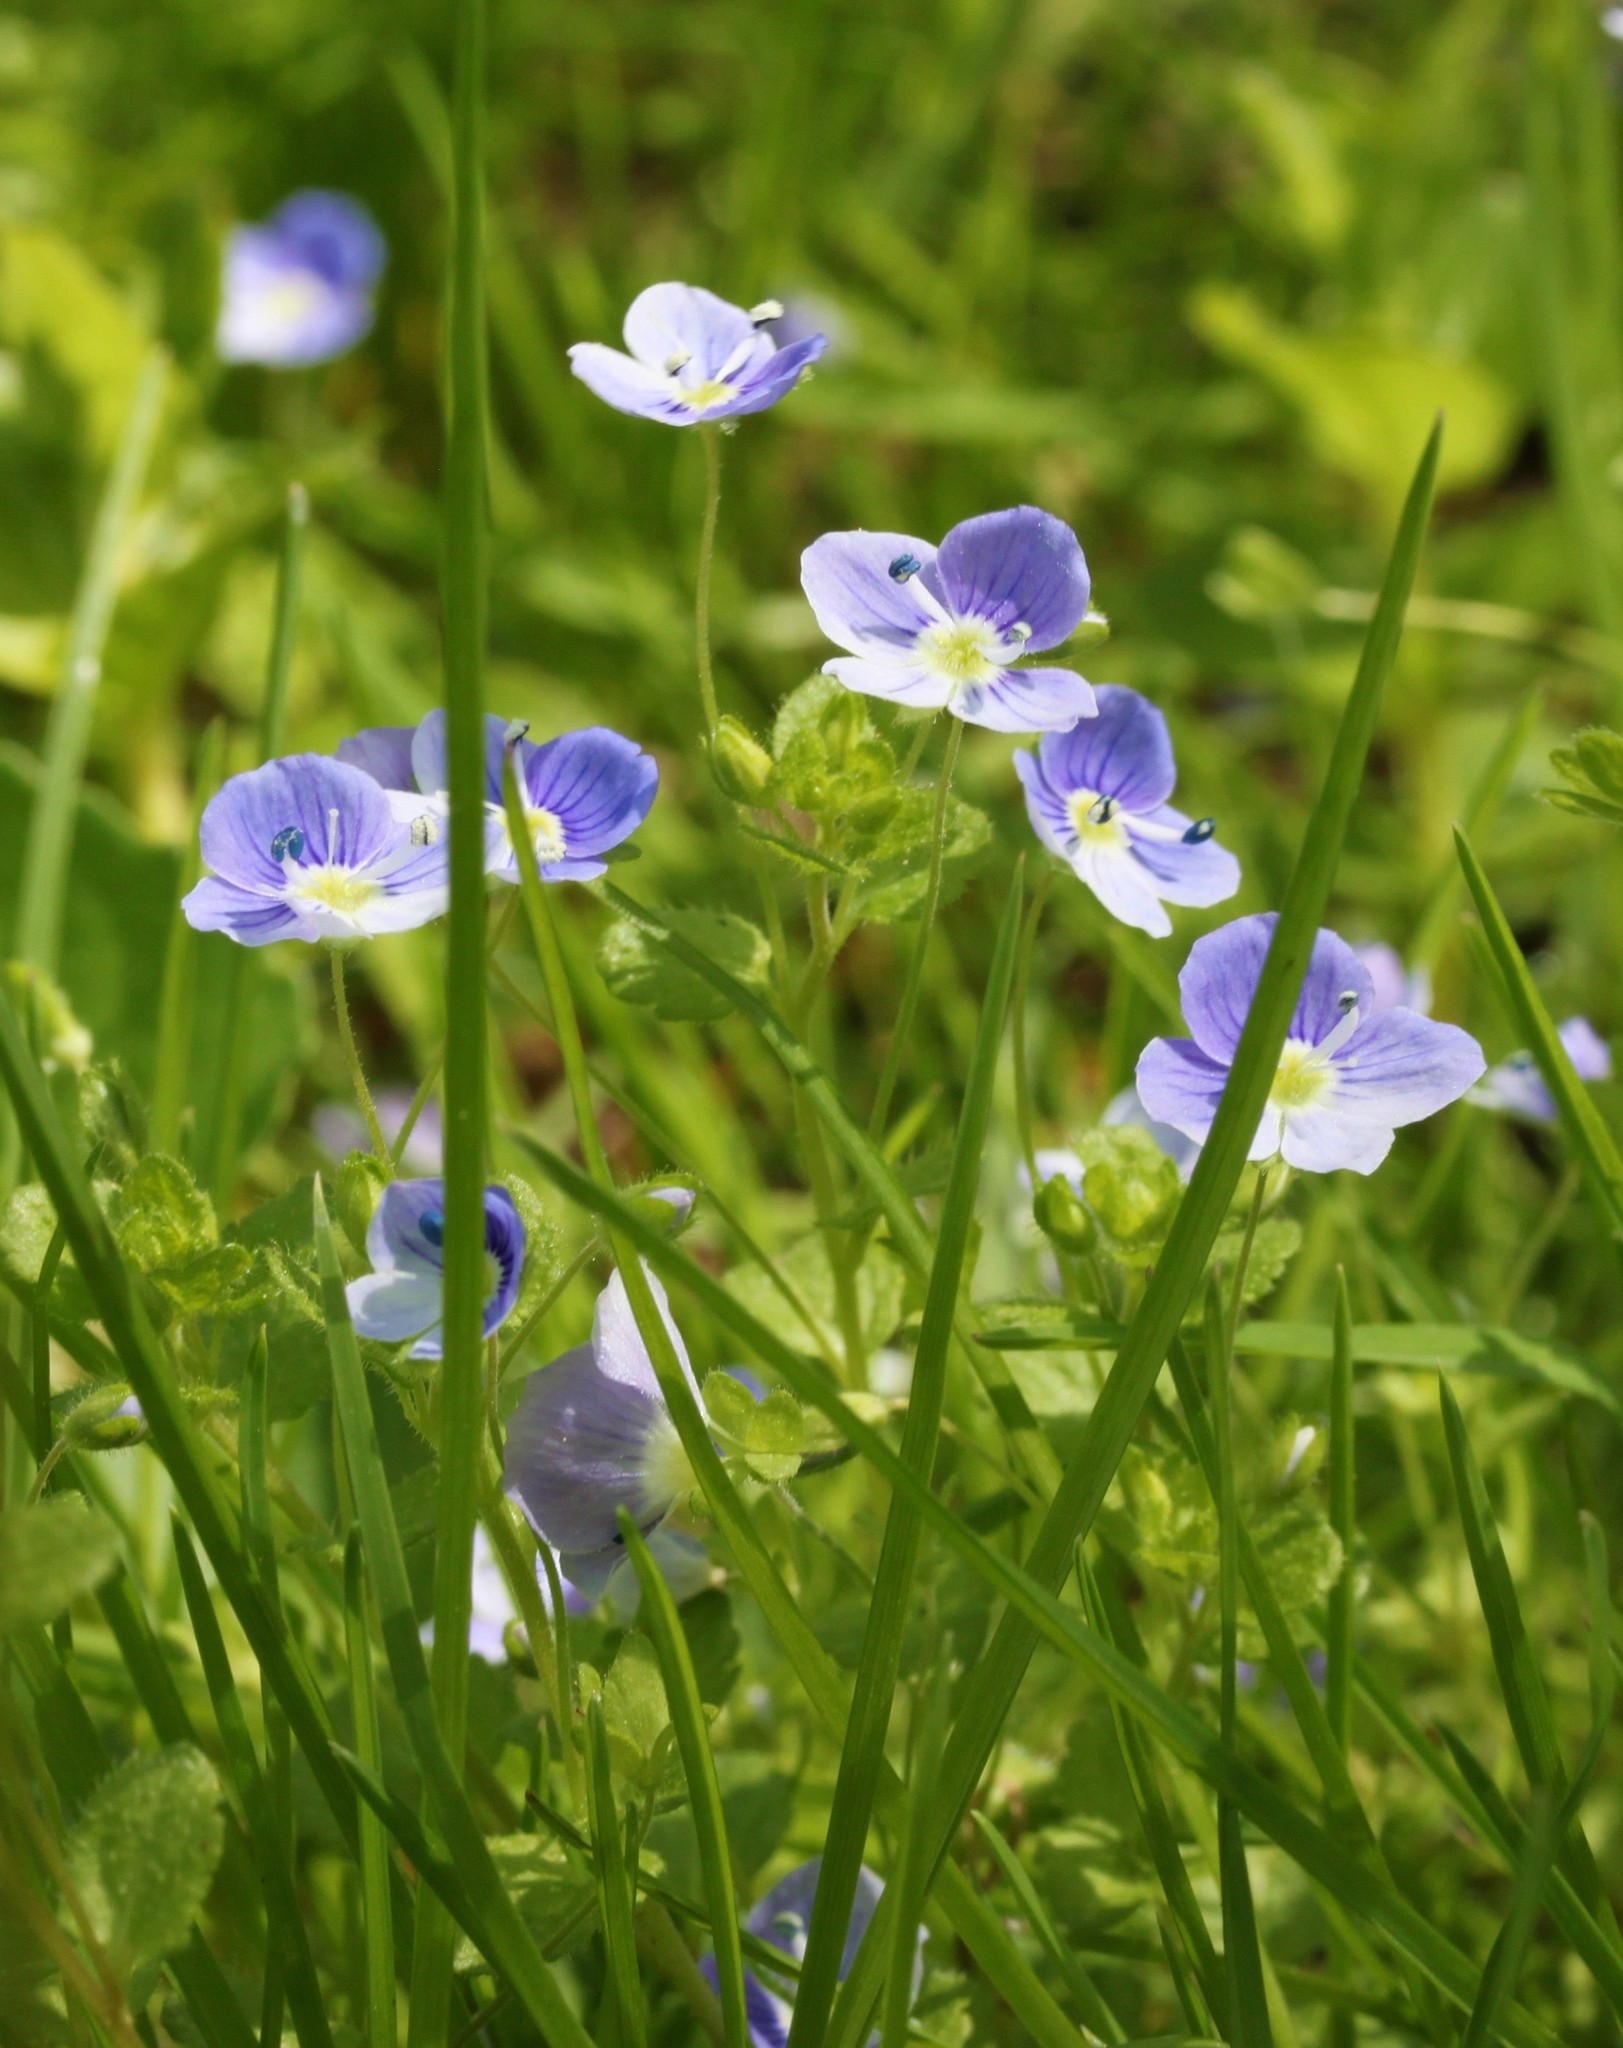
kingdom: Plantae
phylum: Tracheophyta
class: Magnoliopsida
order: Lamiales
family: Plantaginaceae
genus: Veronica
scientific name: Veronica filiformis
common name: Slender speedwell
